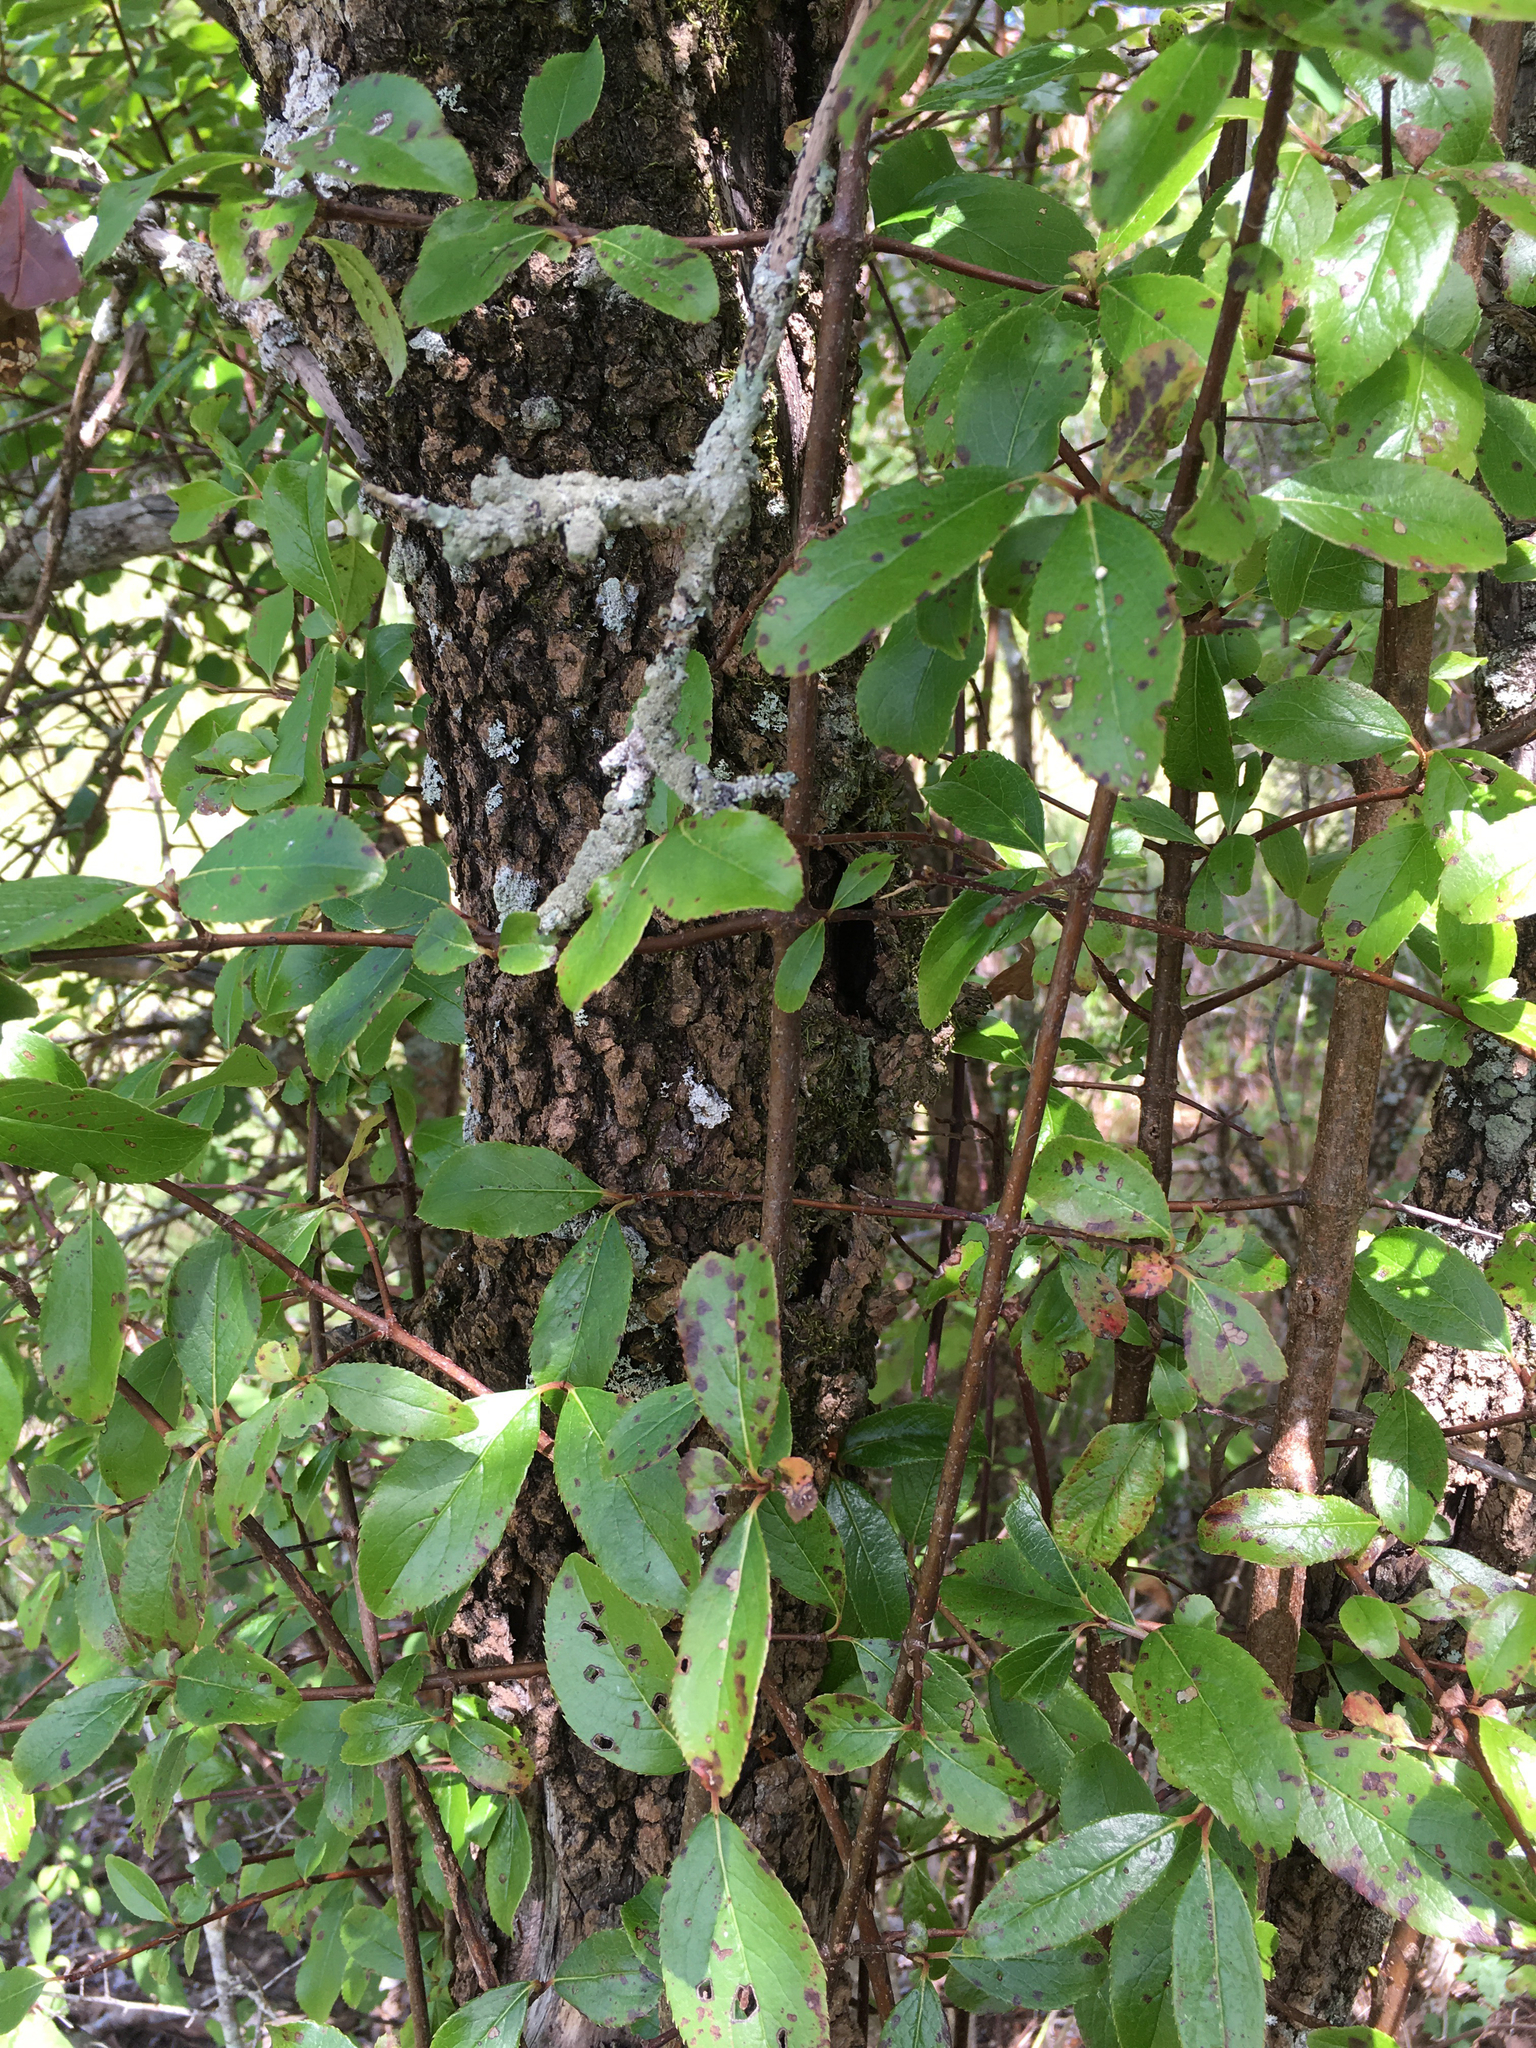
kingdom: Plantae
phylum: Tracheophyta
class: Magnoliopsida
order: Dipsacales
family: Viburnaceae
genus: Viburnum
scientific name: Viburnum rufidulum
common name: Blue haw
